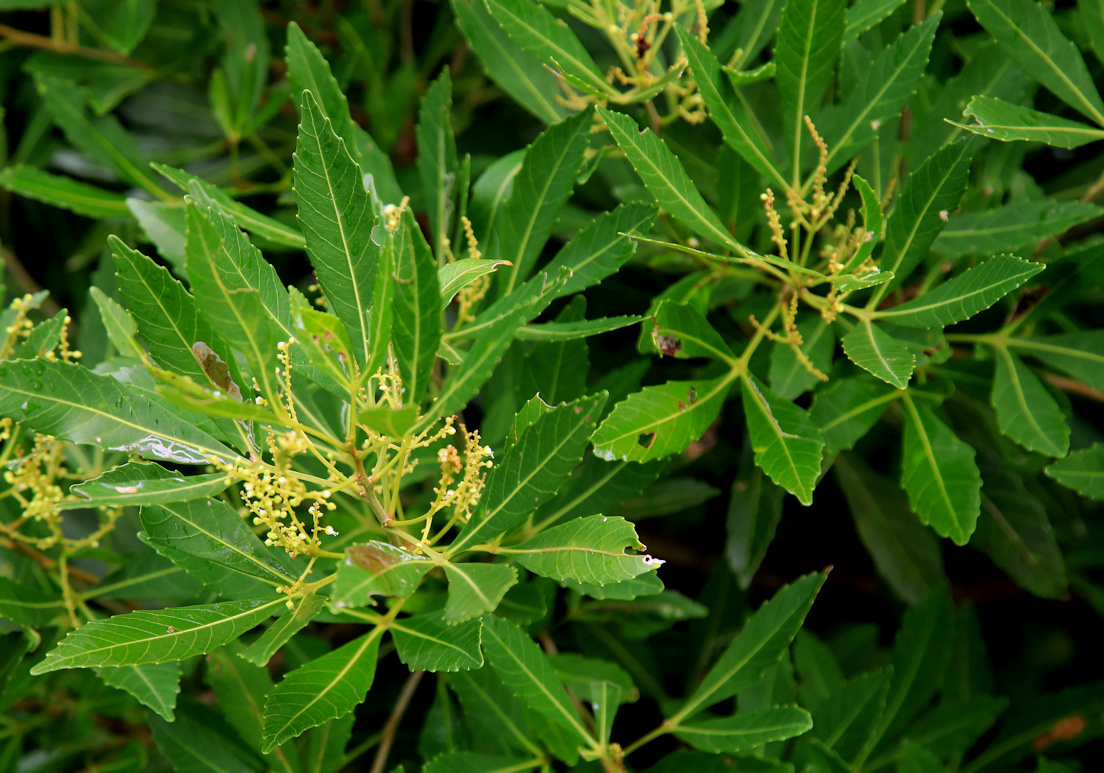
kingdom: Plantae
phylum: Tracheophyta
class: Magnoliopsida
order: Sapindales
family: Sapindaceae
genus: Allophylus
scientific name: Allophylus natalensis
